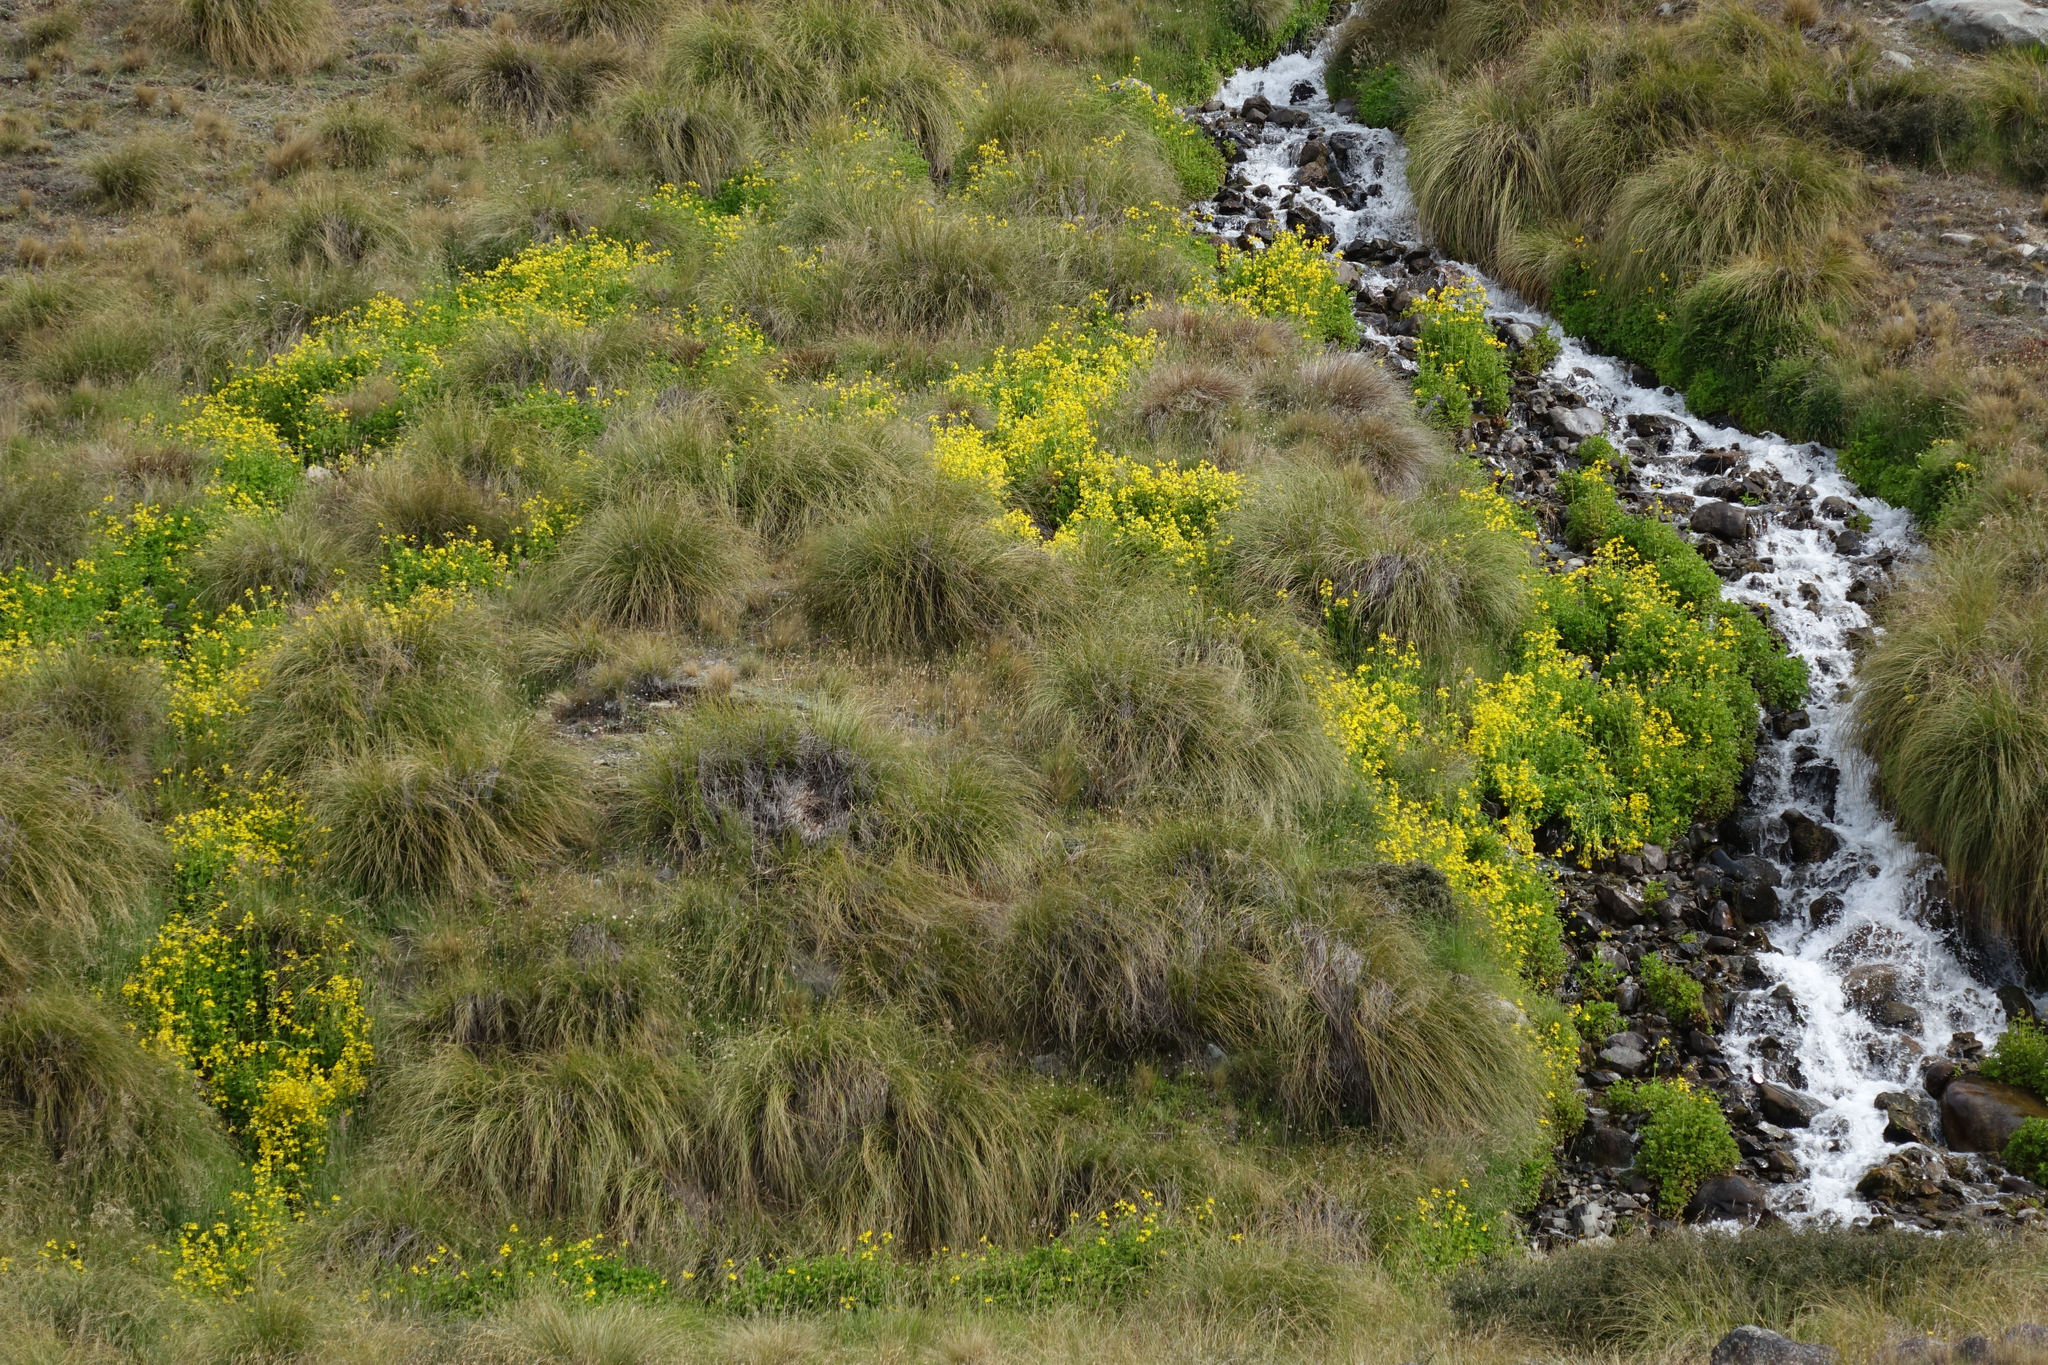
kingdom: Plantae
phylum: Tracheophyta
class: Magnoliopsida
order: Lamiales
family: Phrymaceae
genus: Erythranthe
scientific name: Erythranthe guttata
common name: Monkeyflower
